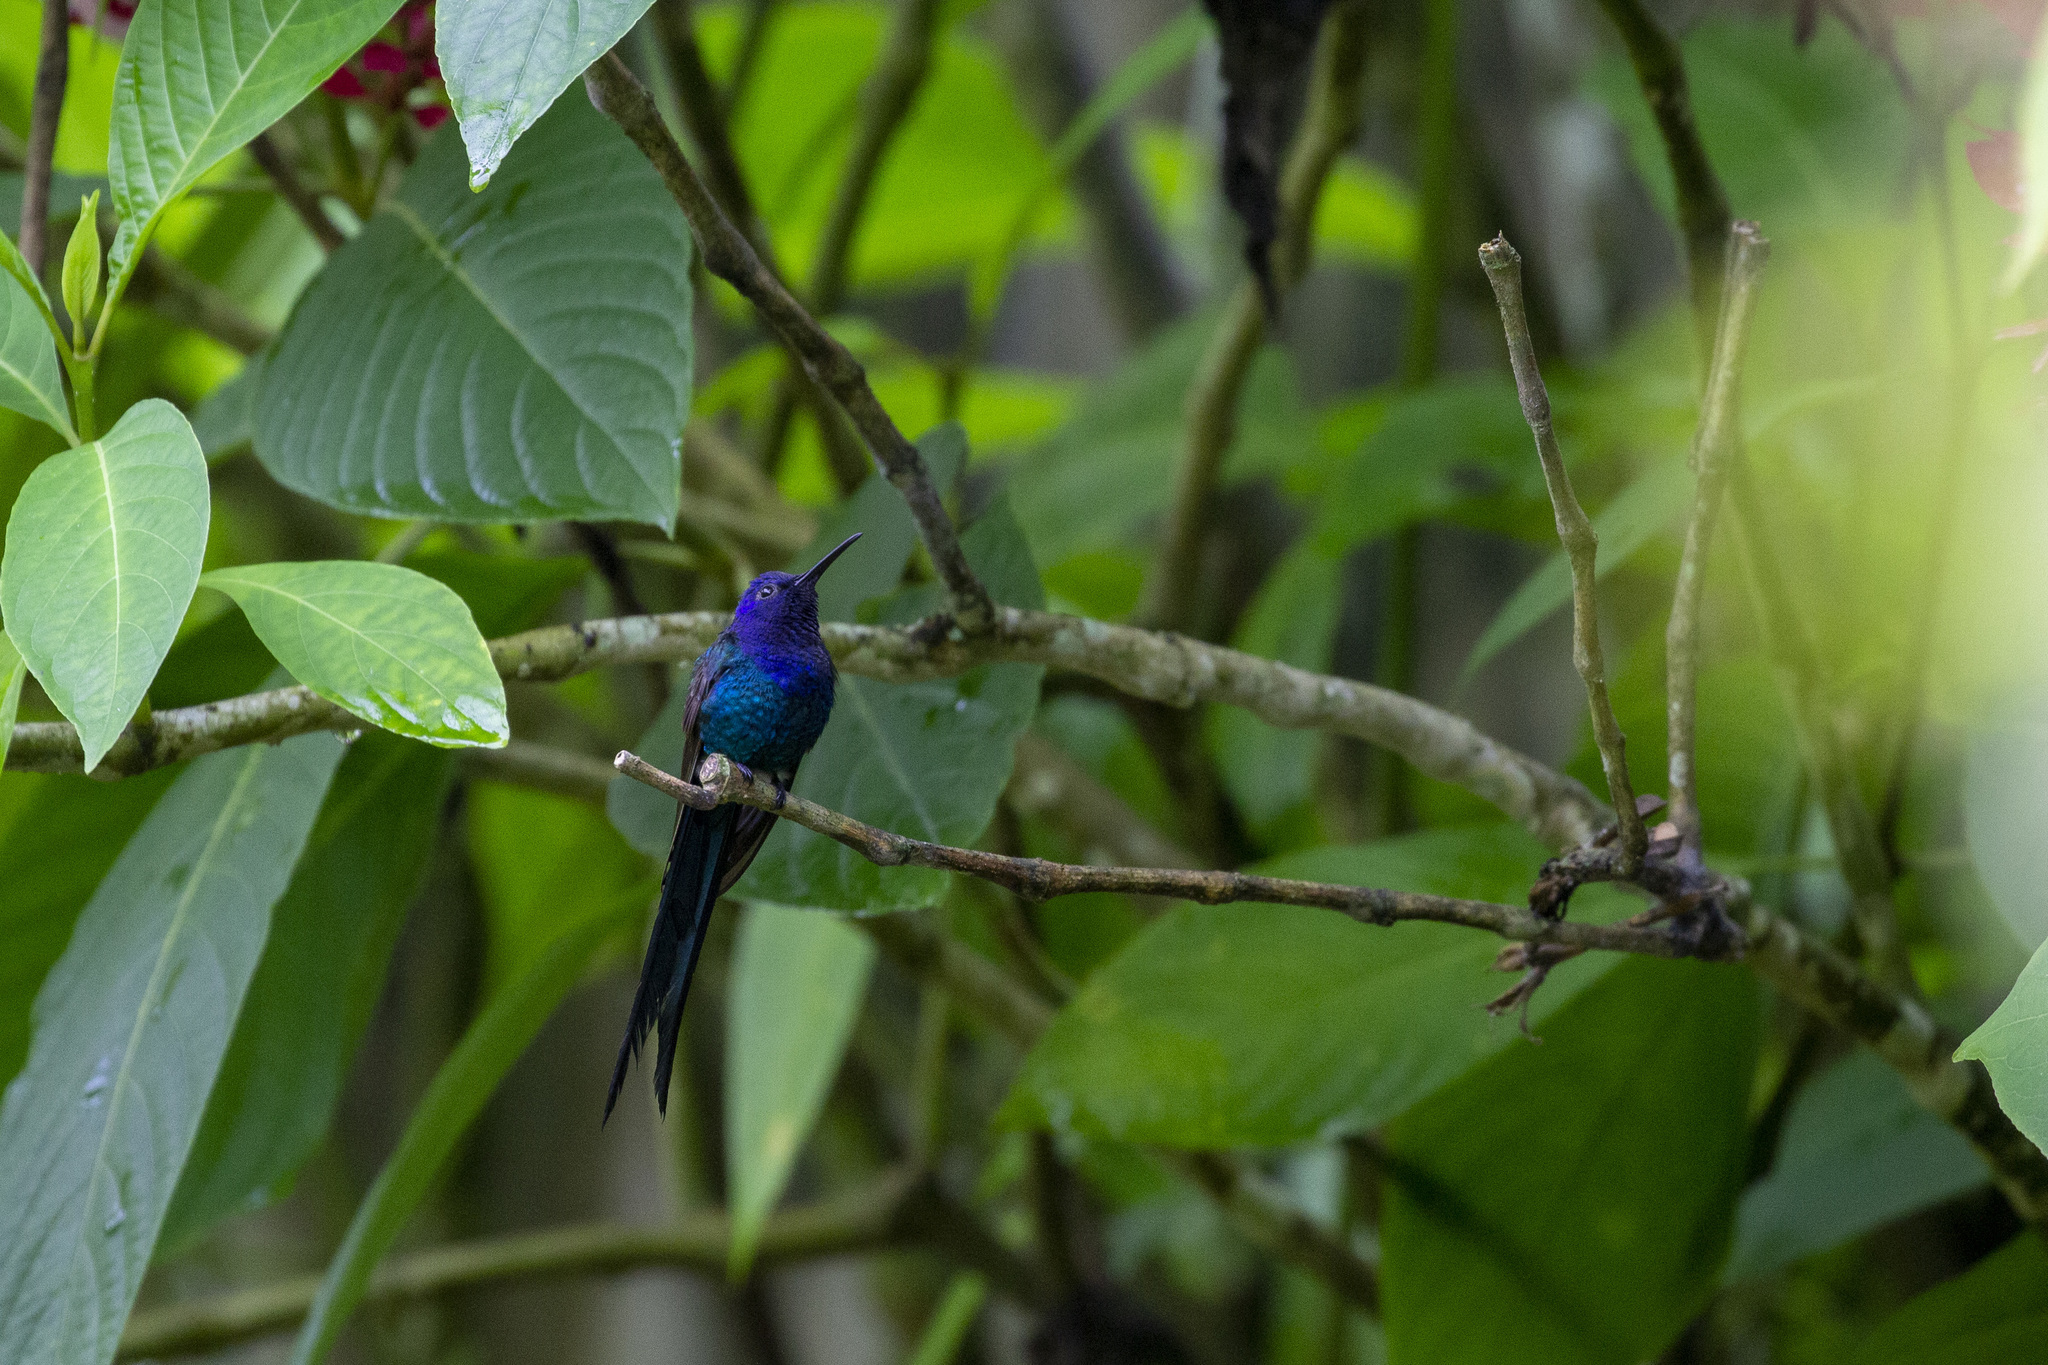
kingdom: Animalia
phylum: Chordata
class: Aves
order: Apodiformes
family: Trochilidae
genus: Eupetomena
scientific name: Eupetomena macroura
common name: Swallow-tailed hummingbird
